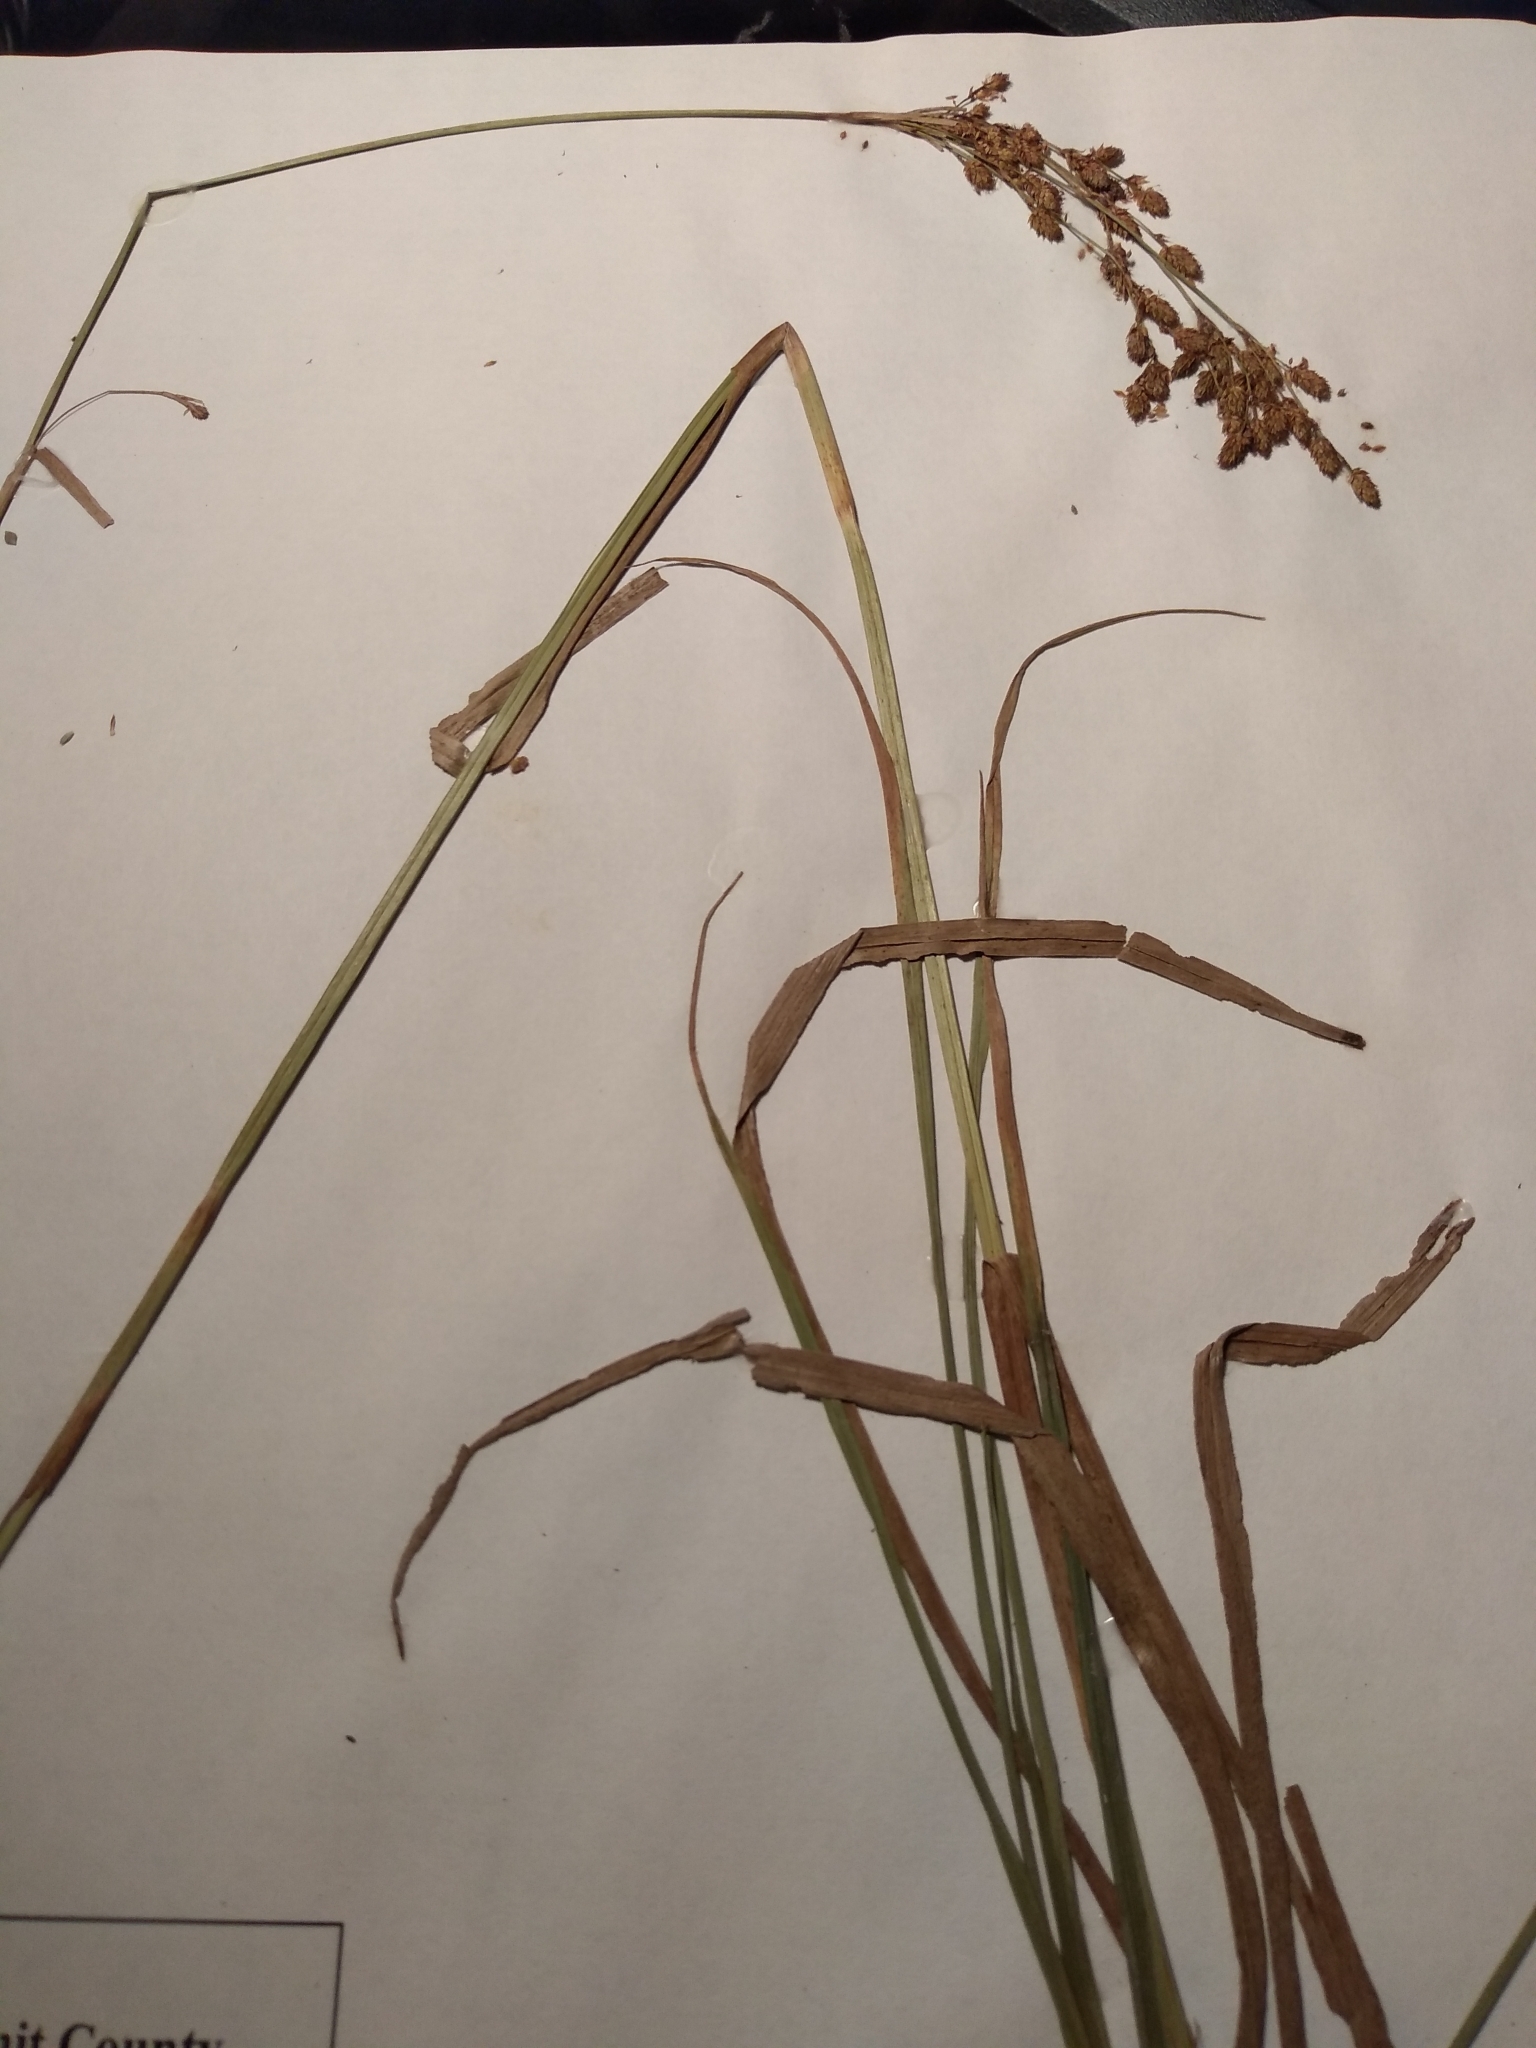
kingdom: Plantae
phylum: Tracheophyta
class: Liliopsida
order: Poales
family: Cyperaceae
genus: Scirpus
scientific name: Scirpus pendulus
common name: Nodding bulrush
